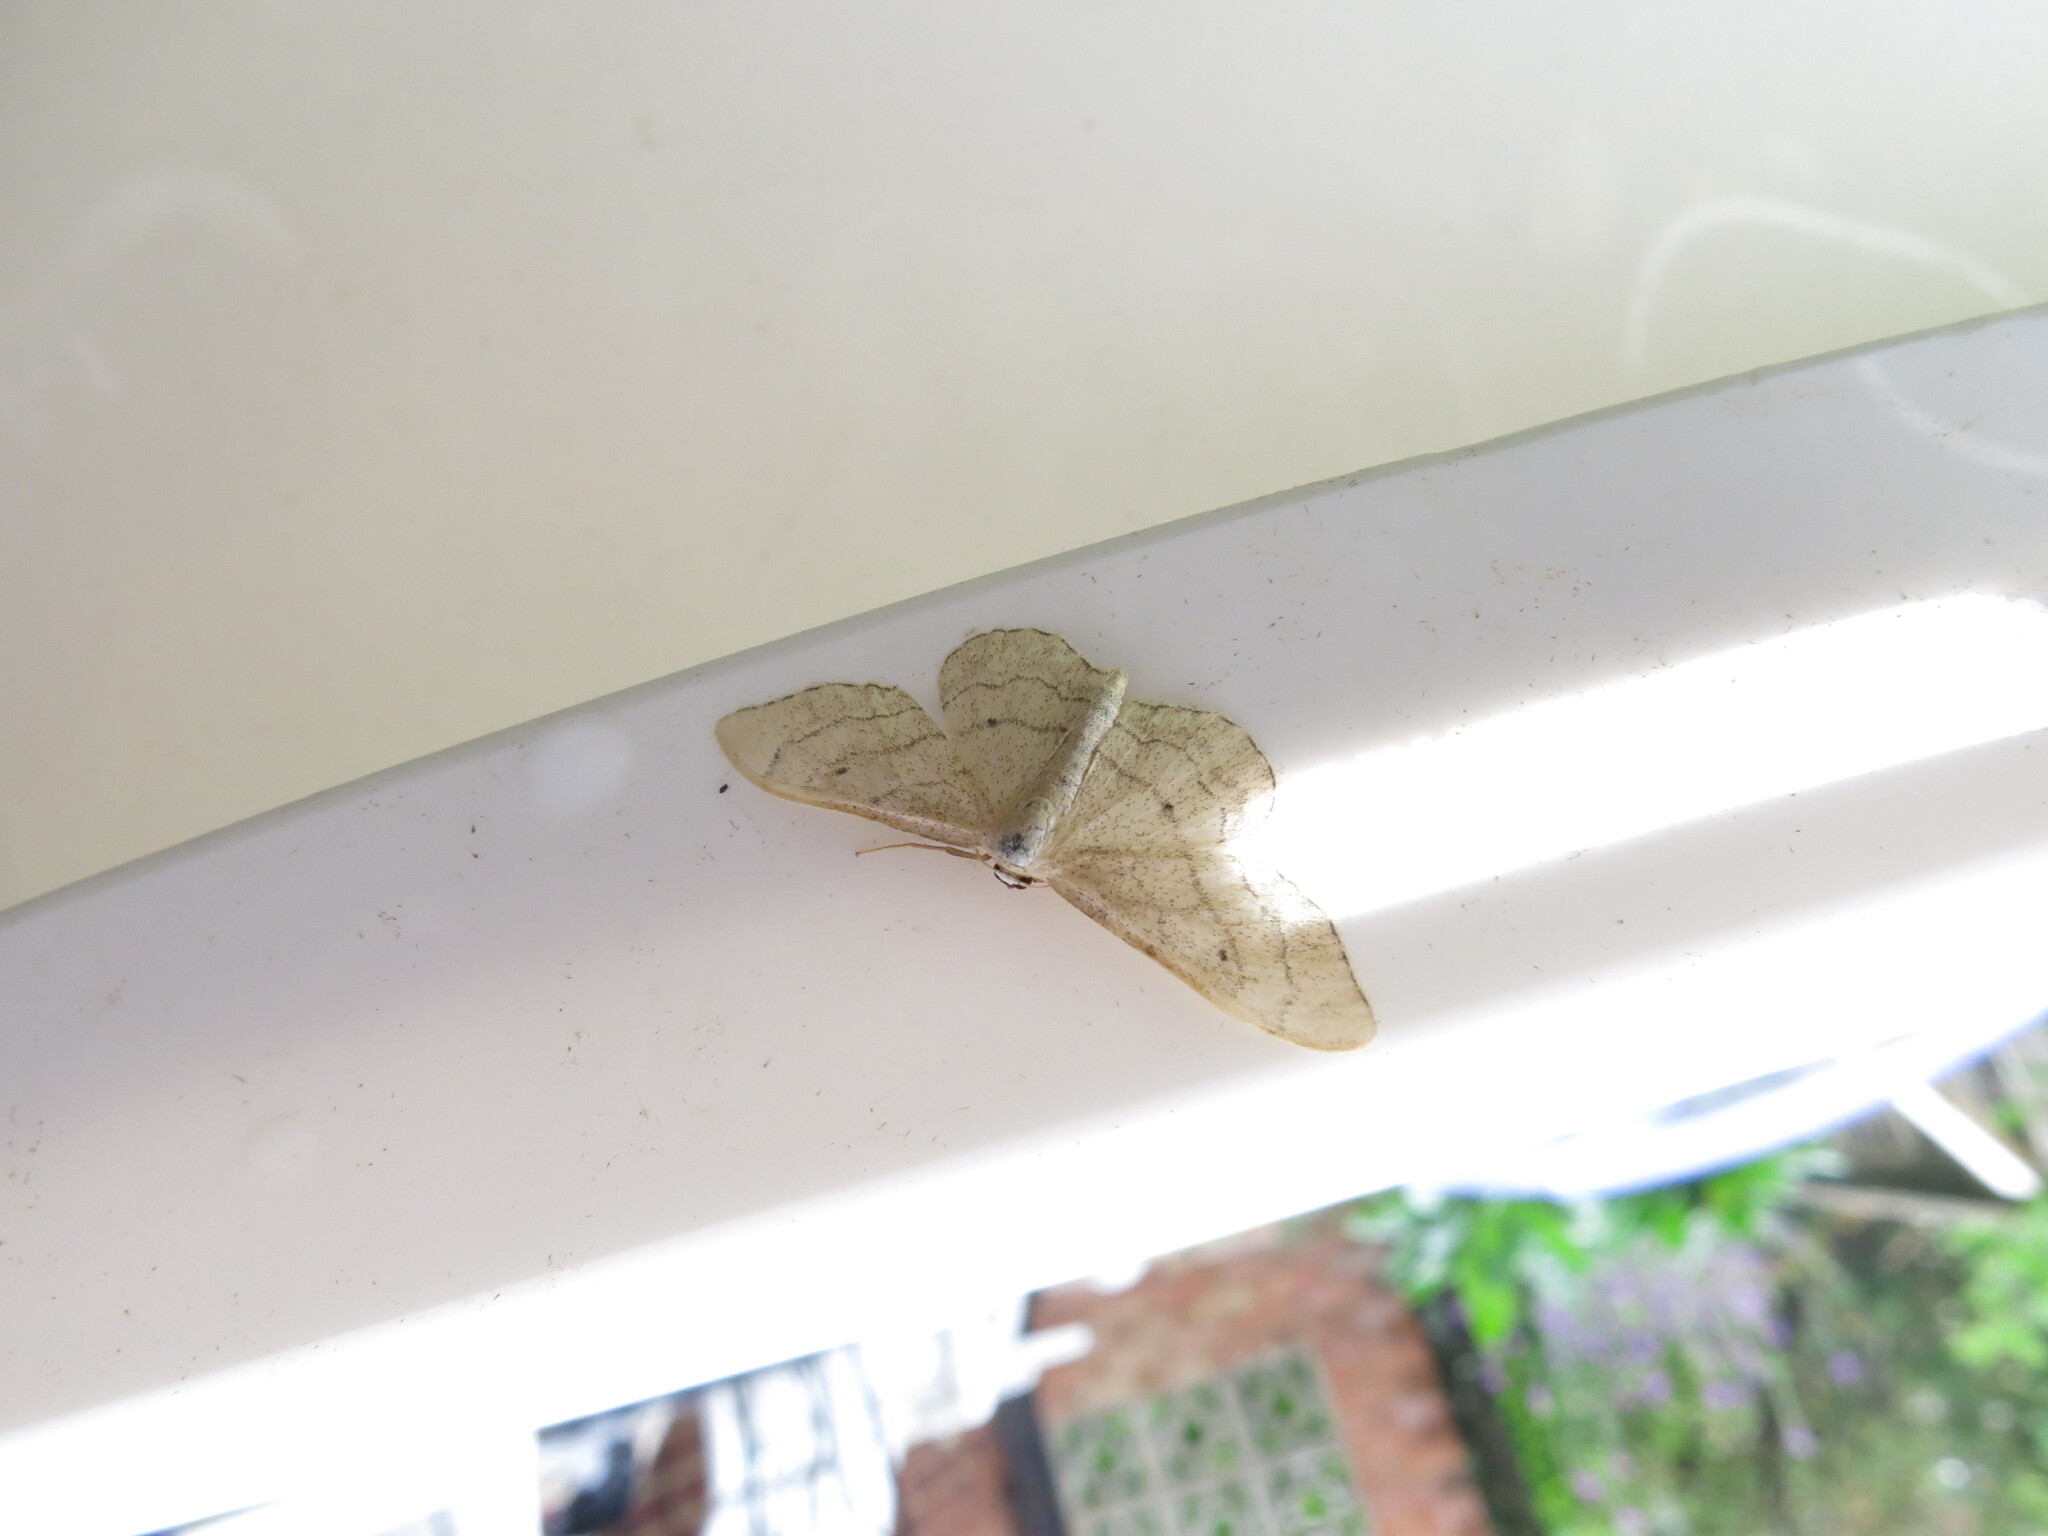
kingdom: Animalia
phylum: Arthropoda
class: Insecta
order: Lepidoptera
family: Geometridae
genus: Idaea
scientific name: Idaea aversata
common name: Riband wave
